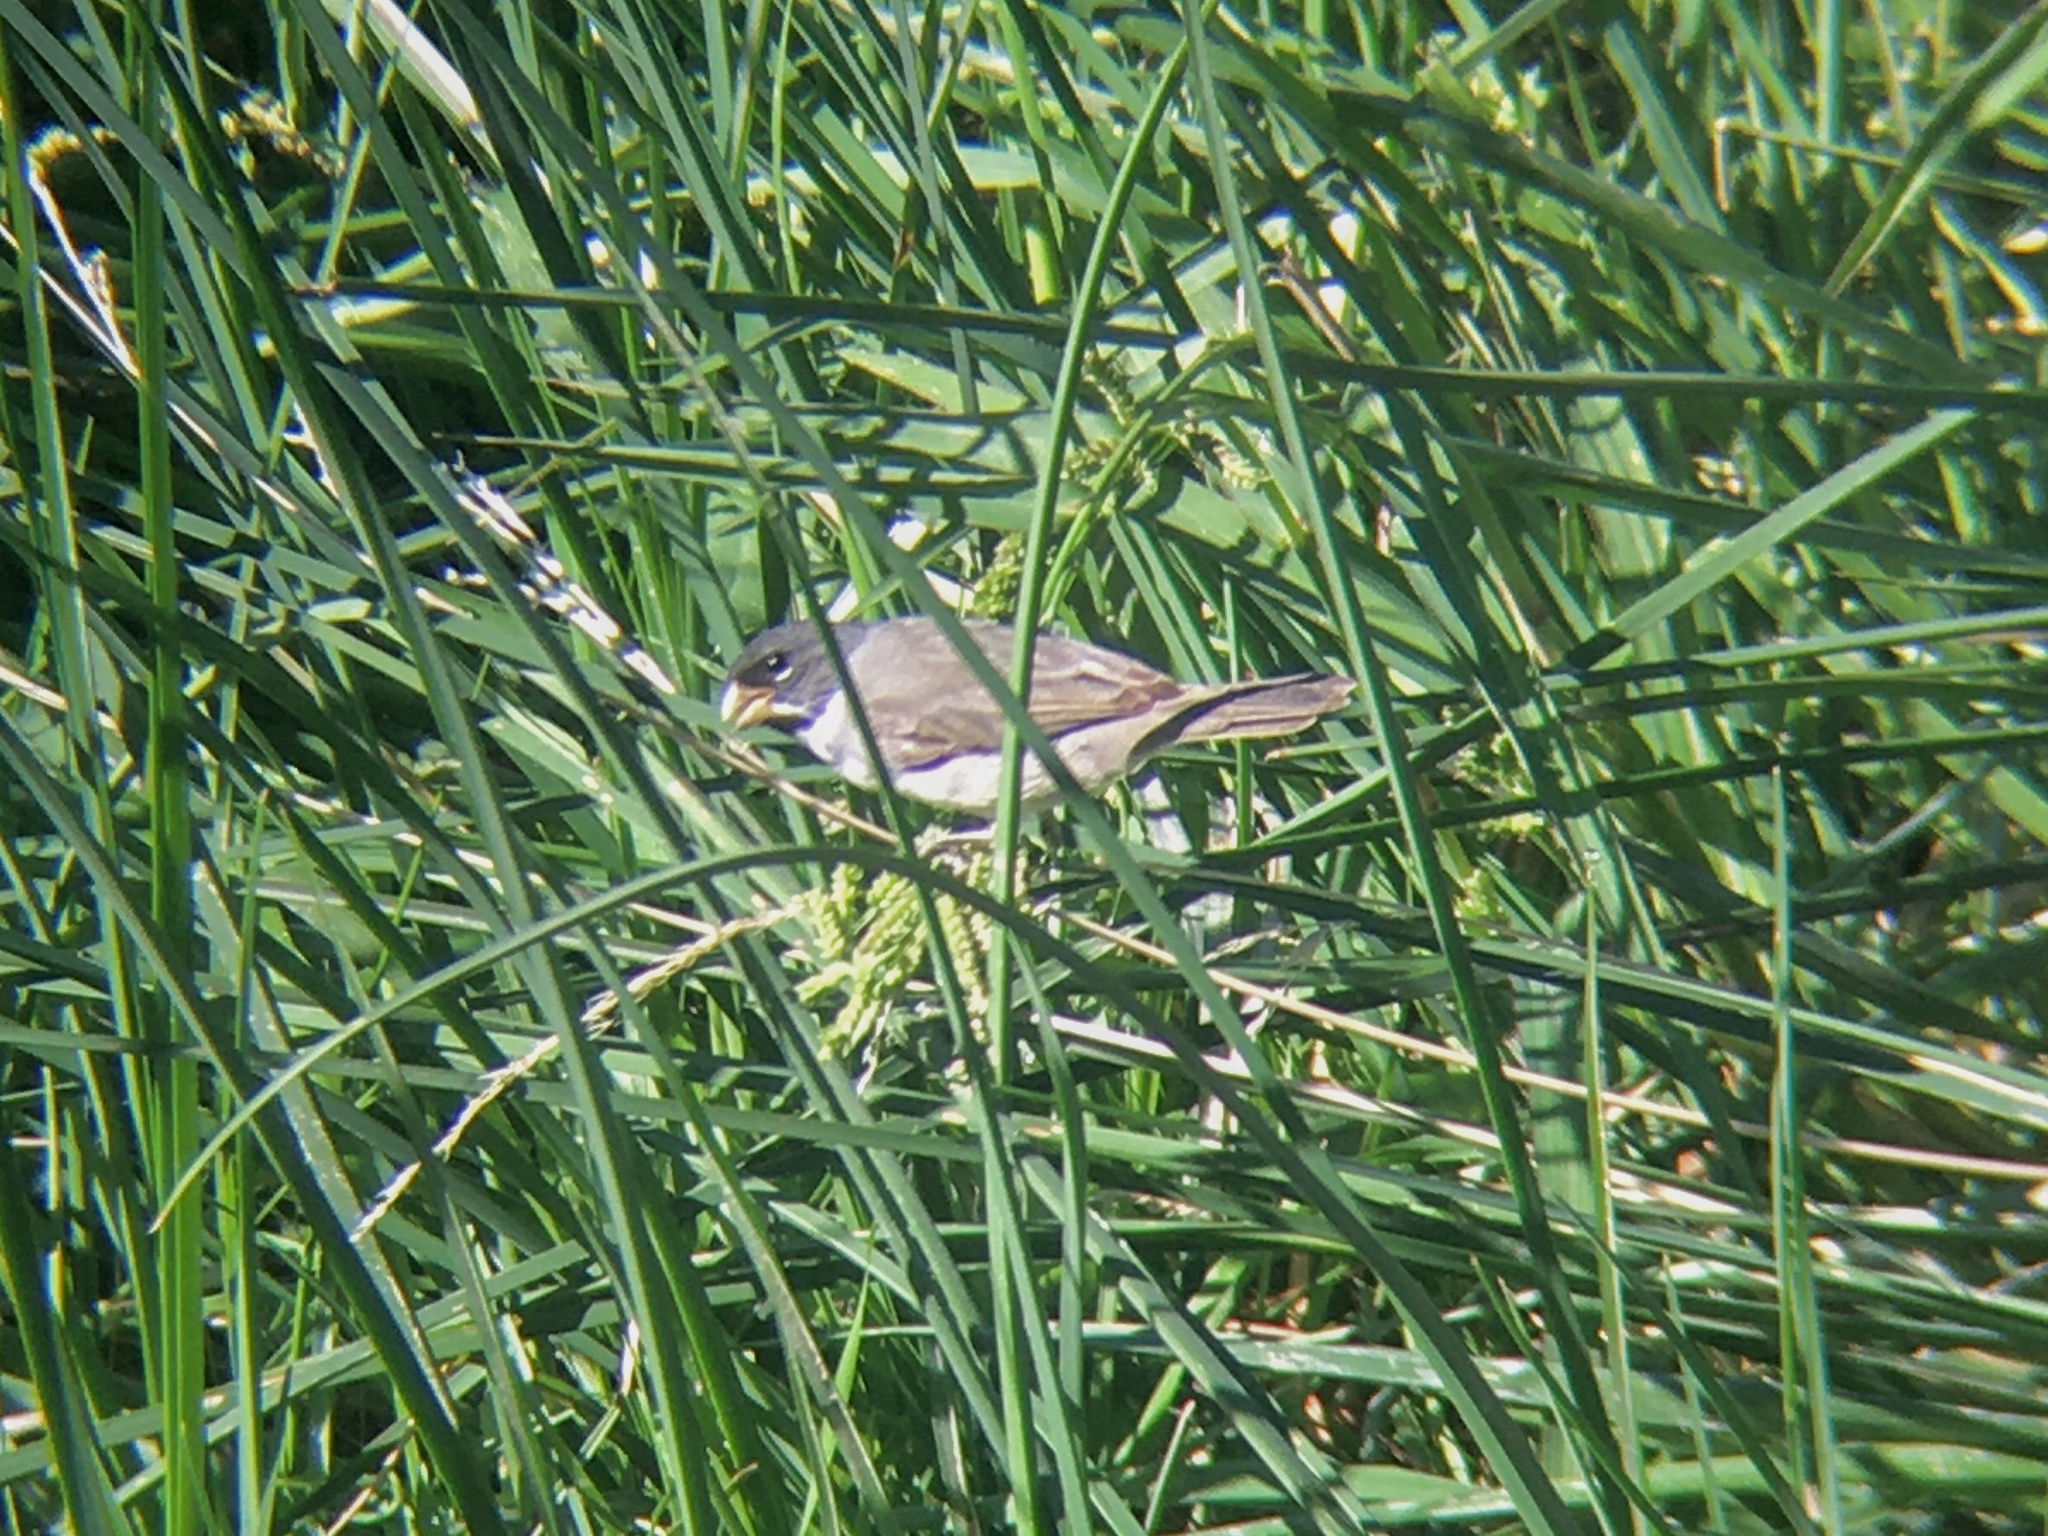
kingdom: Animalia
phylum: Chordata
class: Aves
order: Passeriformes
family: Thraupidae
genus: Sporophila
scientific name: Sporophila caerulescens
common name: Double-collared seedeater
